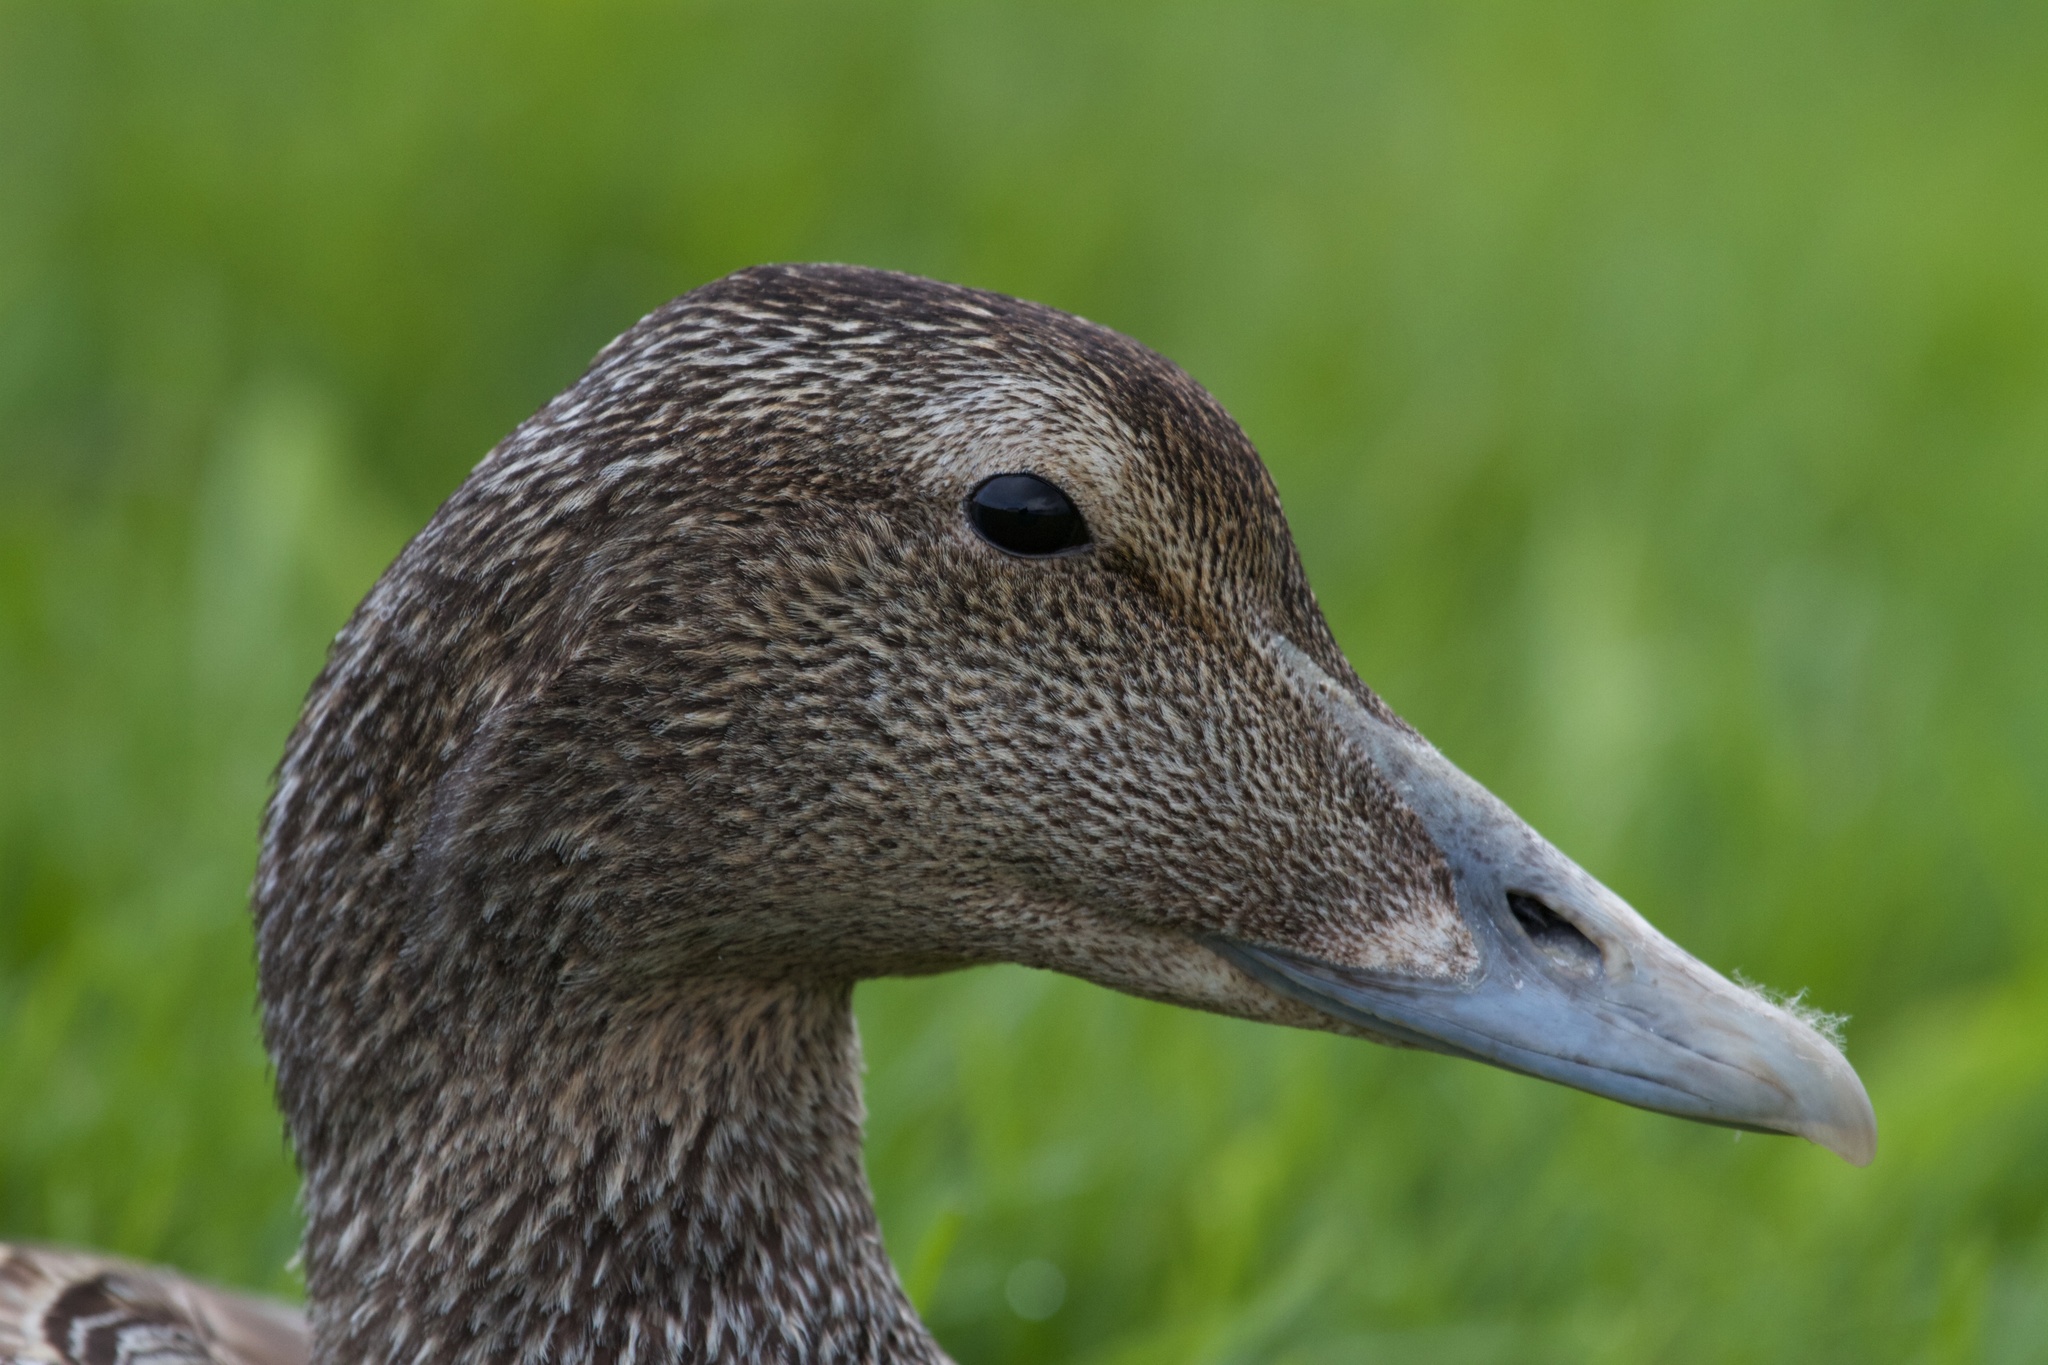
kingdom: Animalia
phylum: Chordata
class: Aves
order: Anseriformes
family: Anatidae
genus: Somateria
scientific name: Somateria mollissima
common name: Common eider
